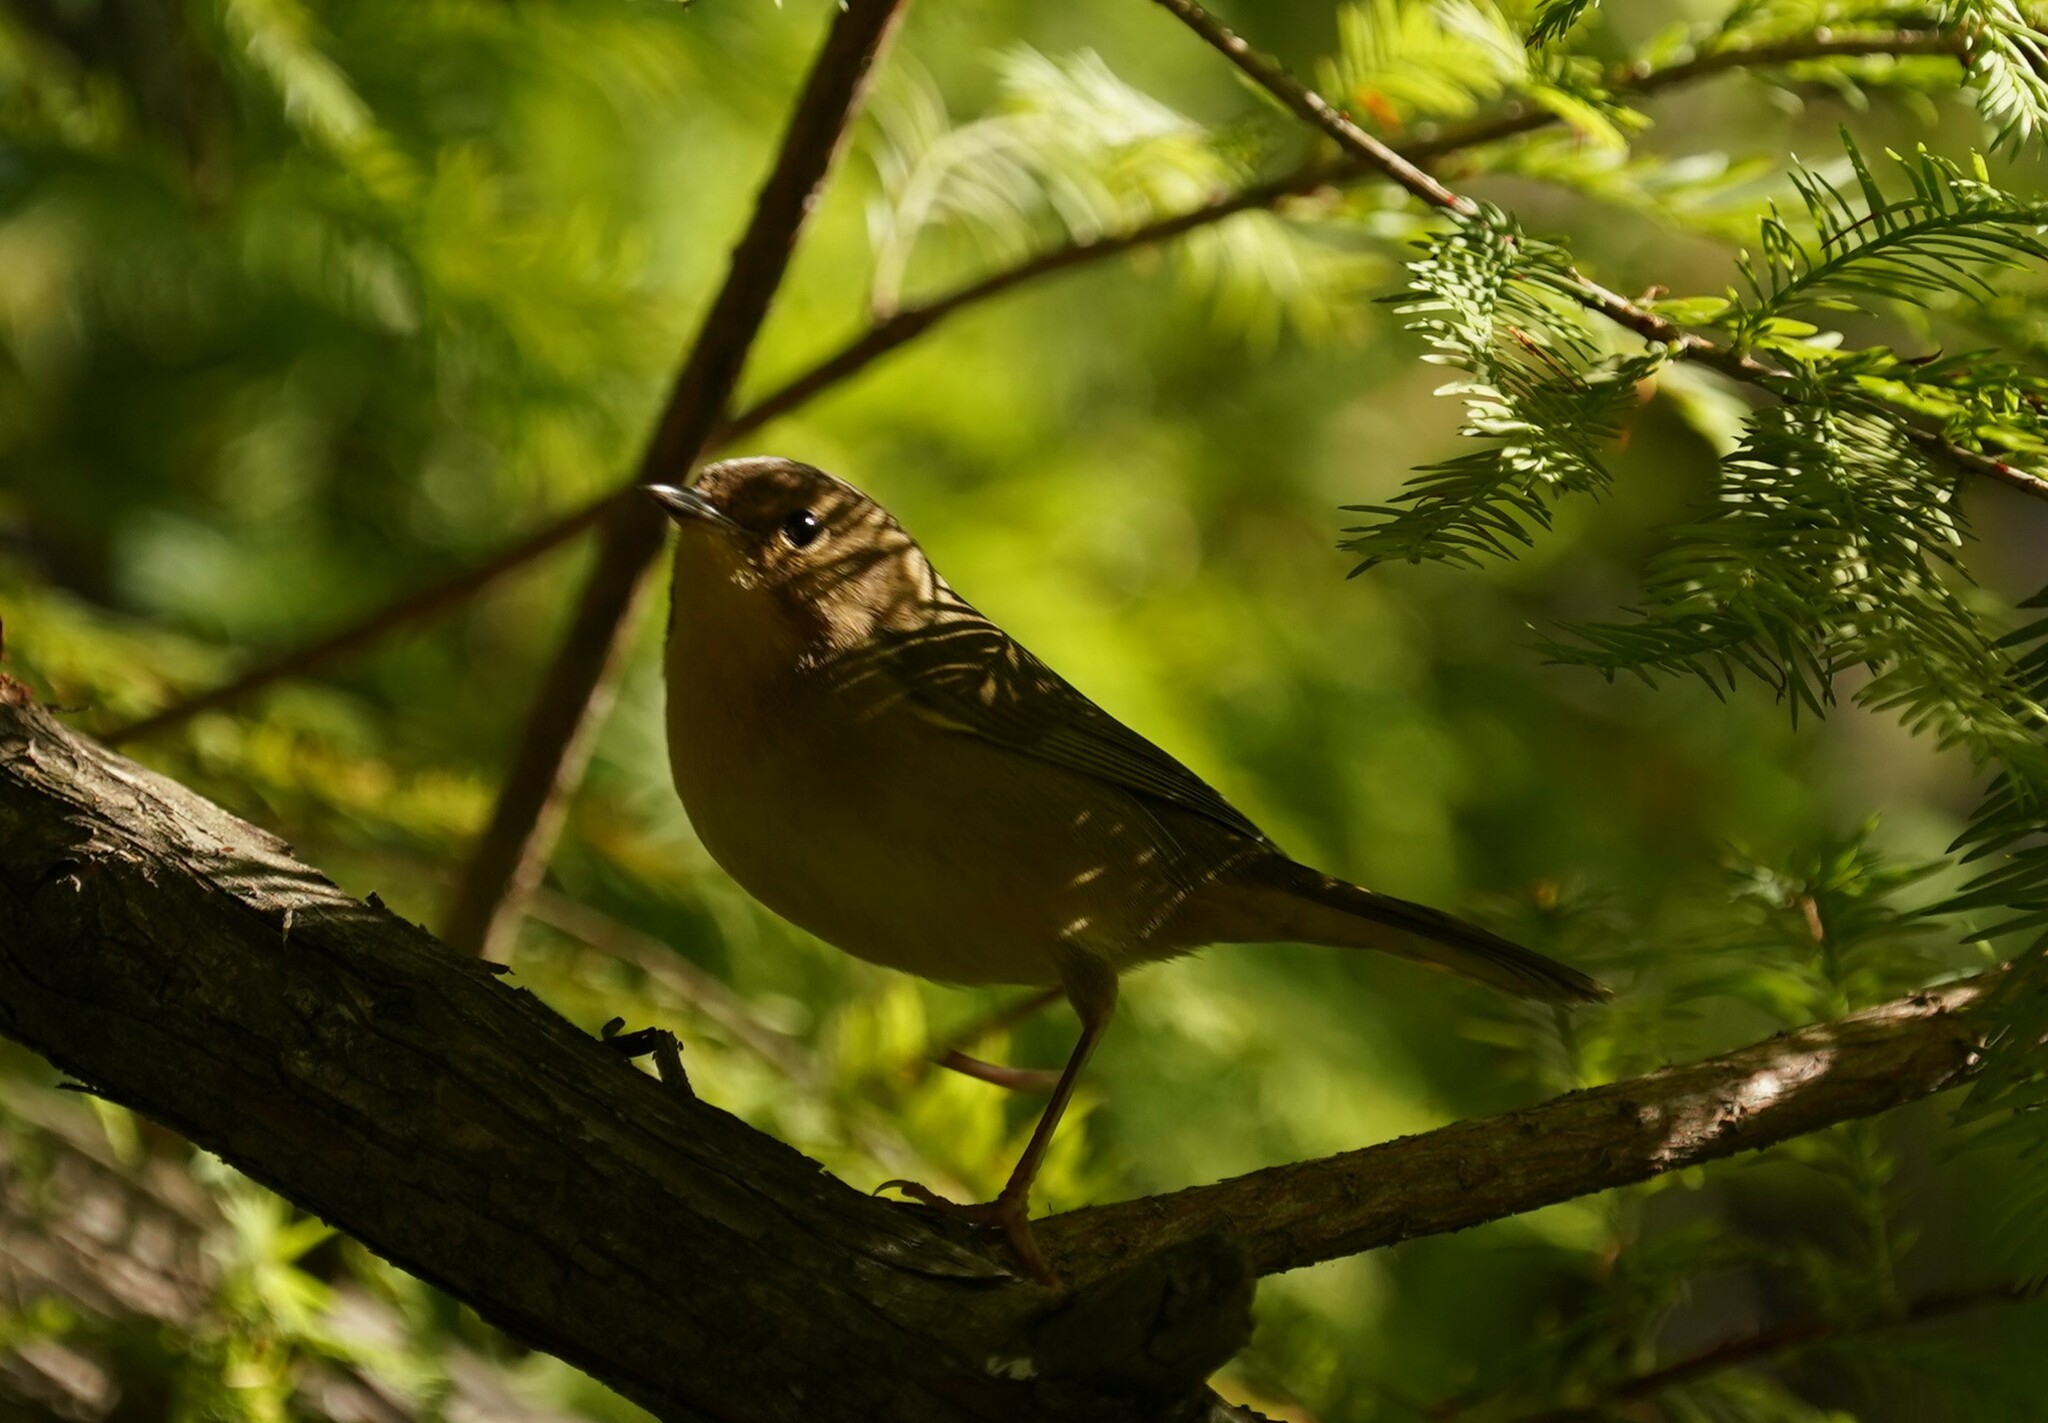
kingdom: Animalia
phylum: Chordata
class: Aves
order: Passeriformes
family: Parulidae
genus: Geothlypis
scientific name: Geothlypis trichas
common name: Common yellowthroat
